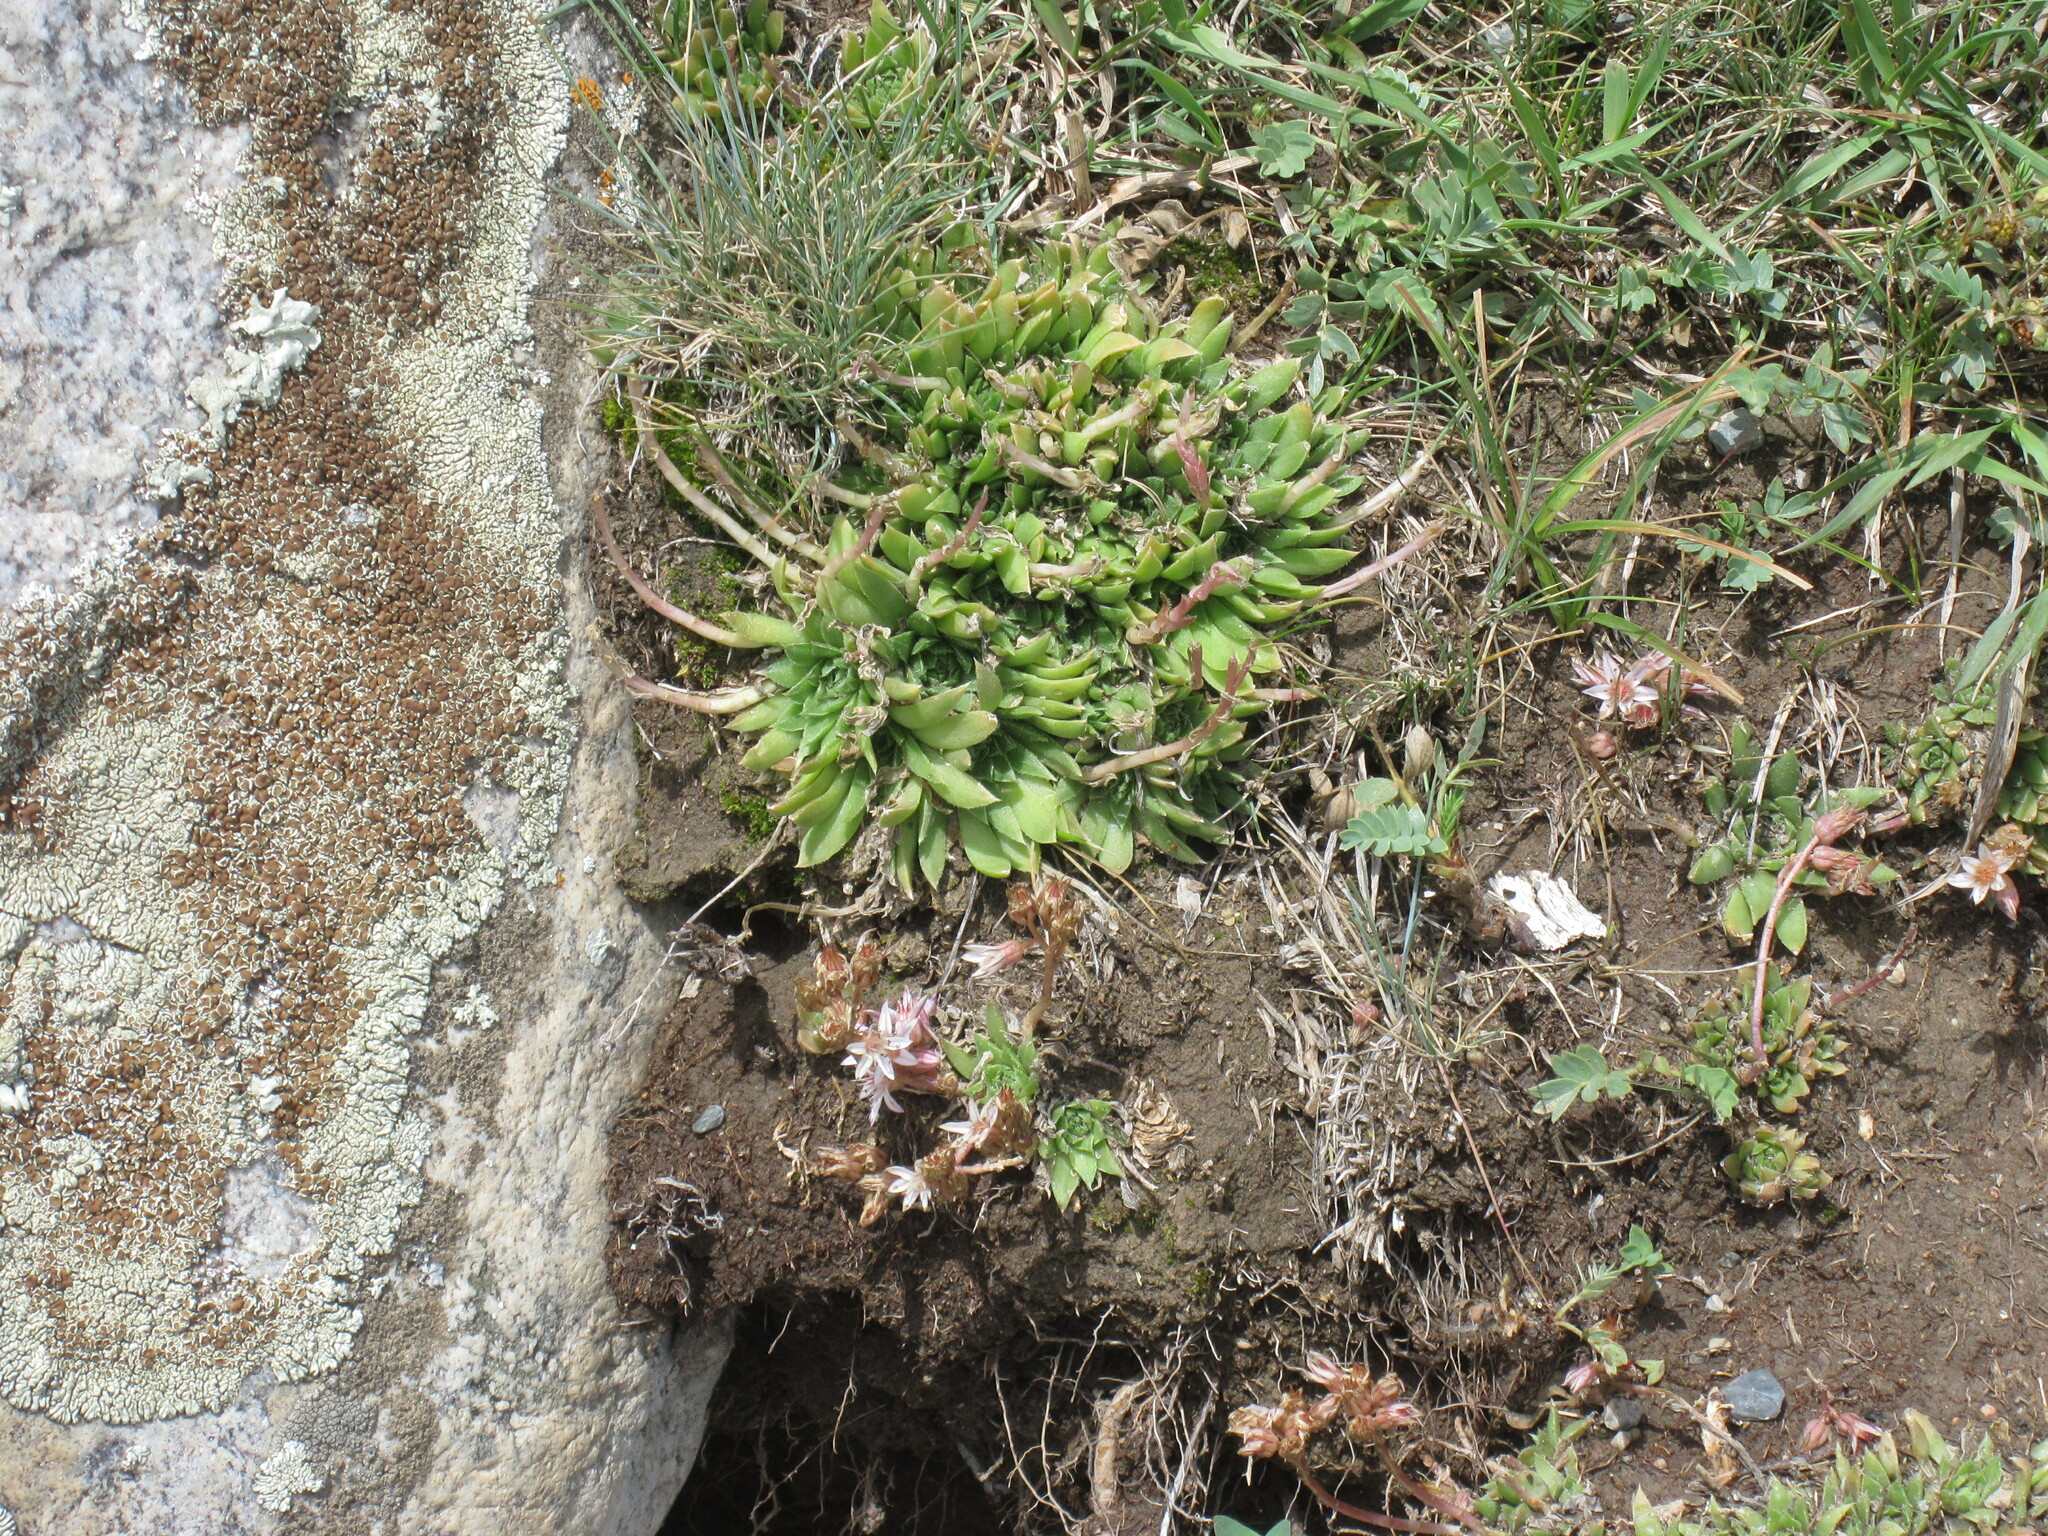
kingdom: Plantae
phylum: Tracheophyta
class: Magnoliopsida
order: Saxifragales
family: Crassulaceae
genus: Rosularia
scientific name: Rosularia alpestris
